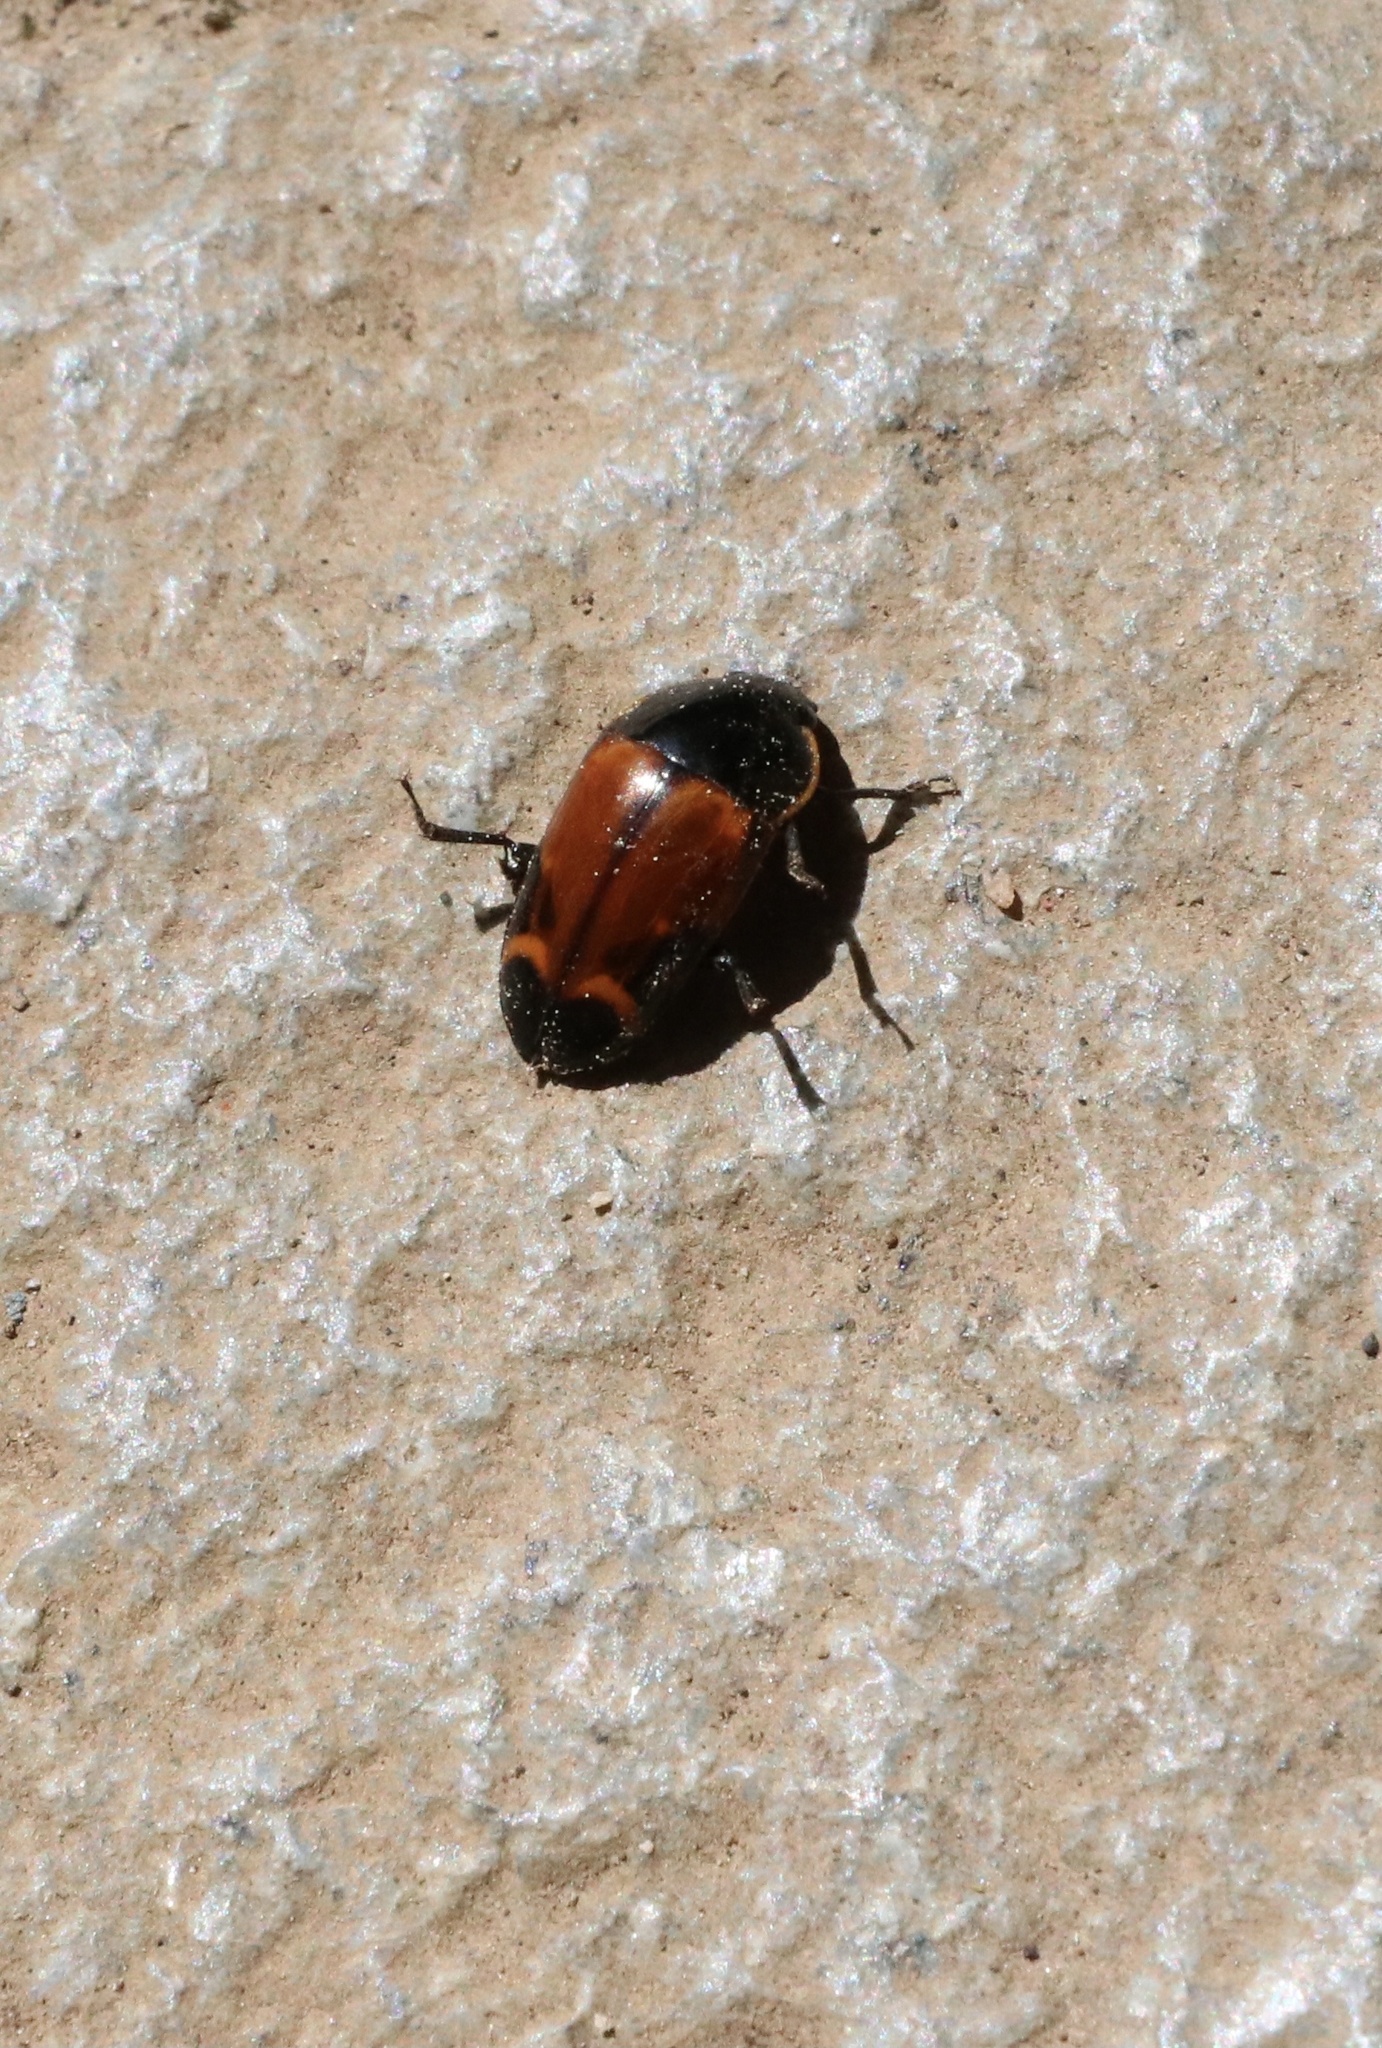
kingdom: Animalia
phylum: Arthropoda
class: Insecta
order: Coleoptera
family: Nitidulidae
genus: Lioschema
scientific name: Lioschema
